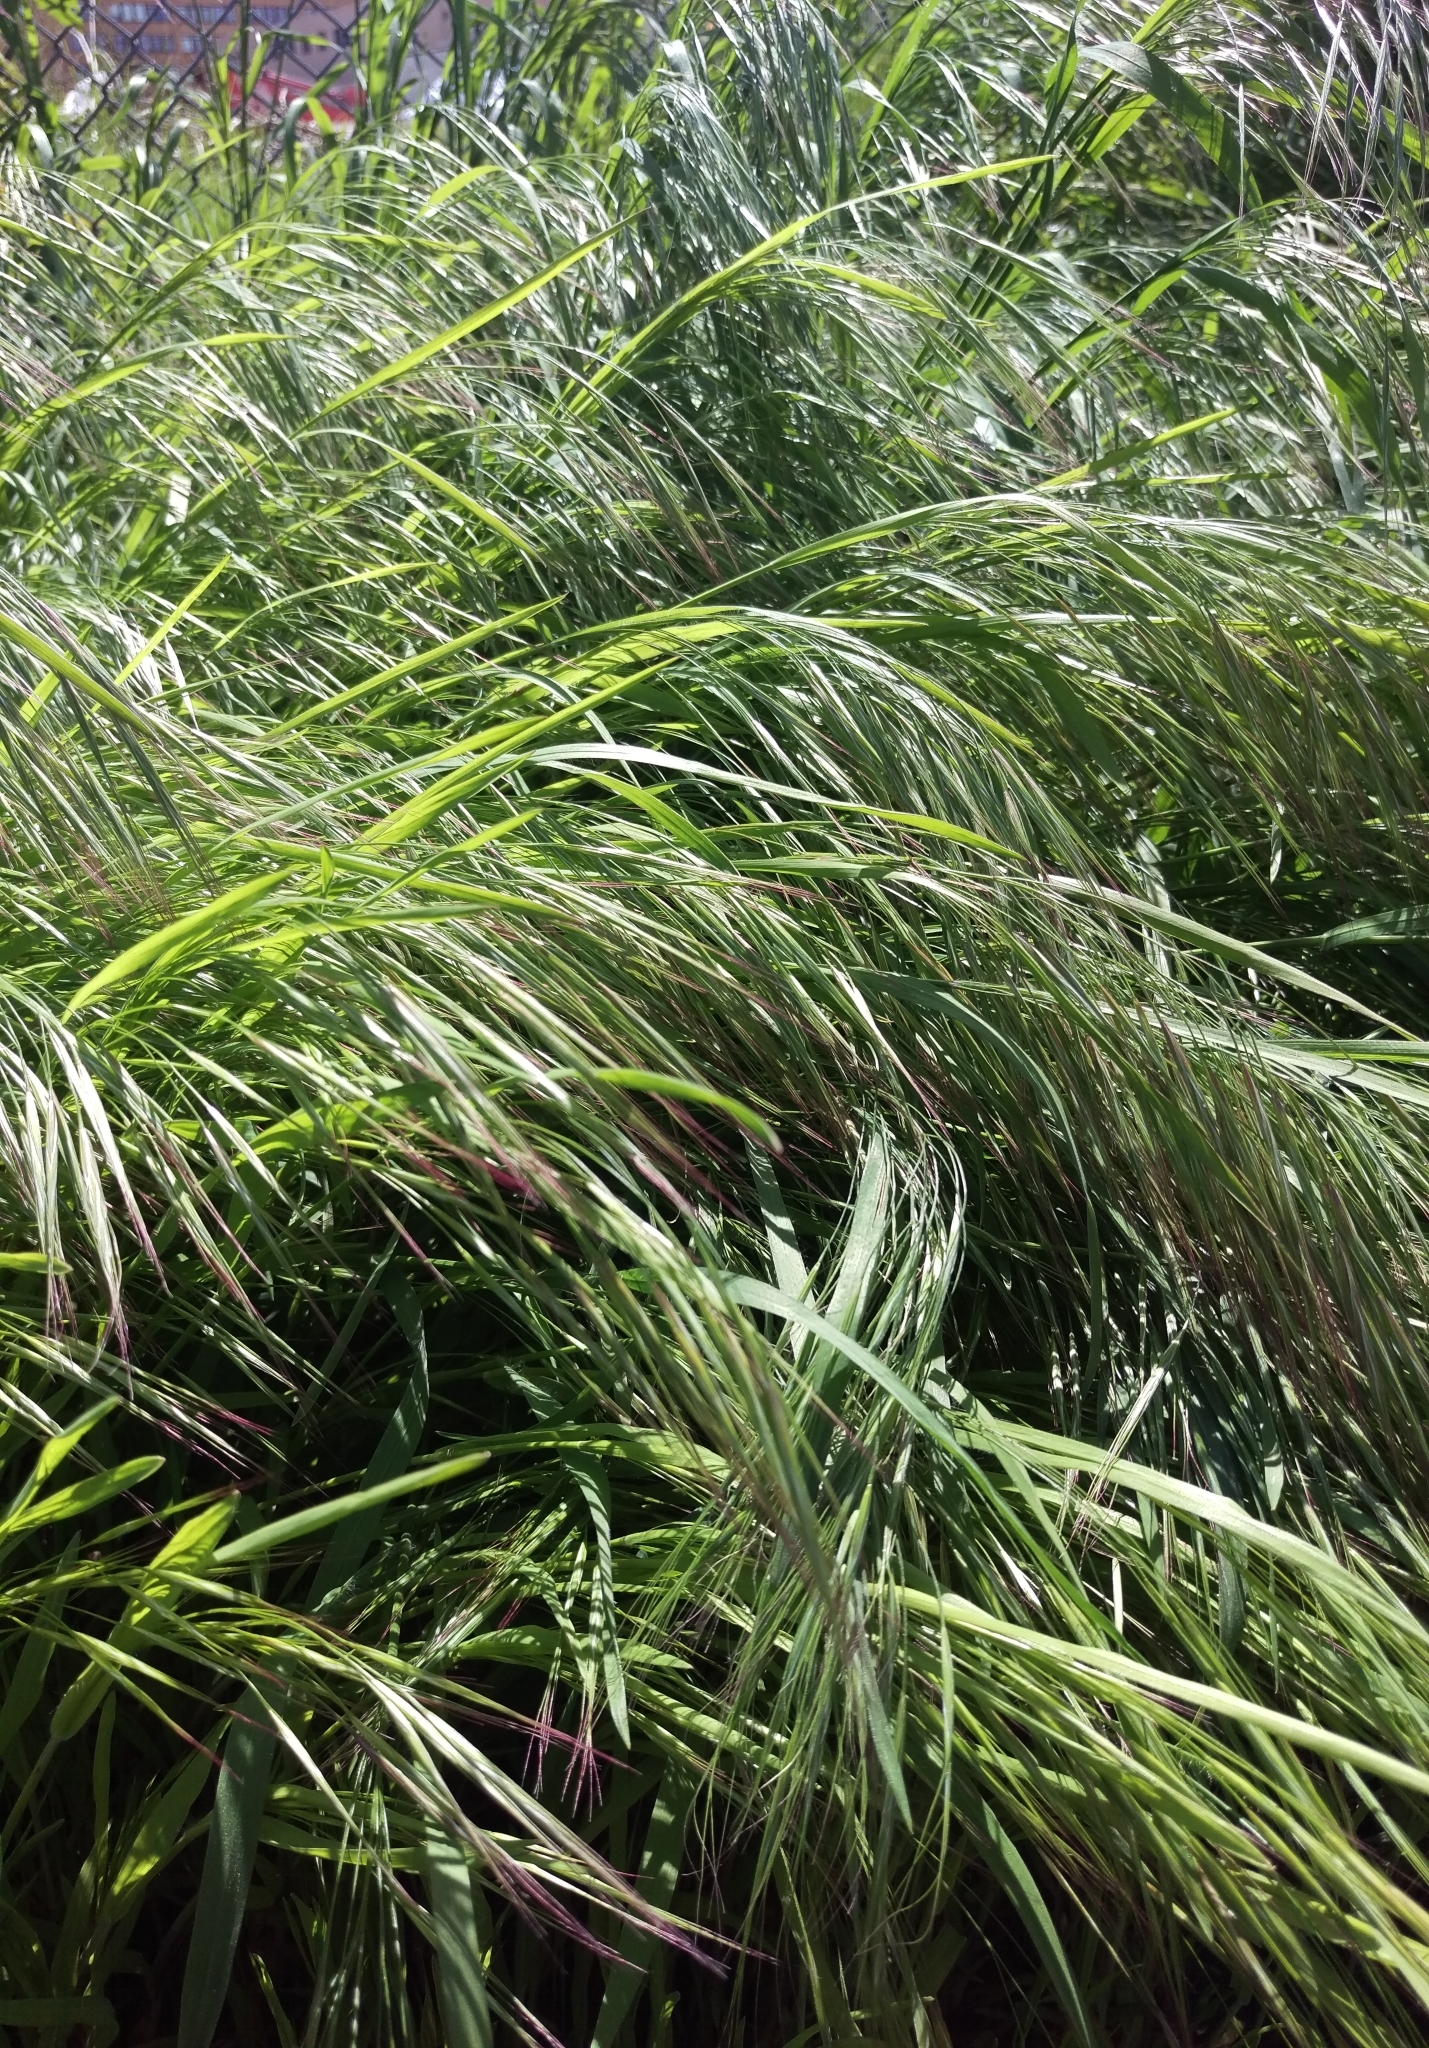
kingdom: Plantae
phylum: Tracheophyta
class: Liliopsida
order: Poales
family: Poaceae
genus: Bromus
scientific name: Bromus sterilis
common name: Poverty brome
